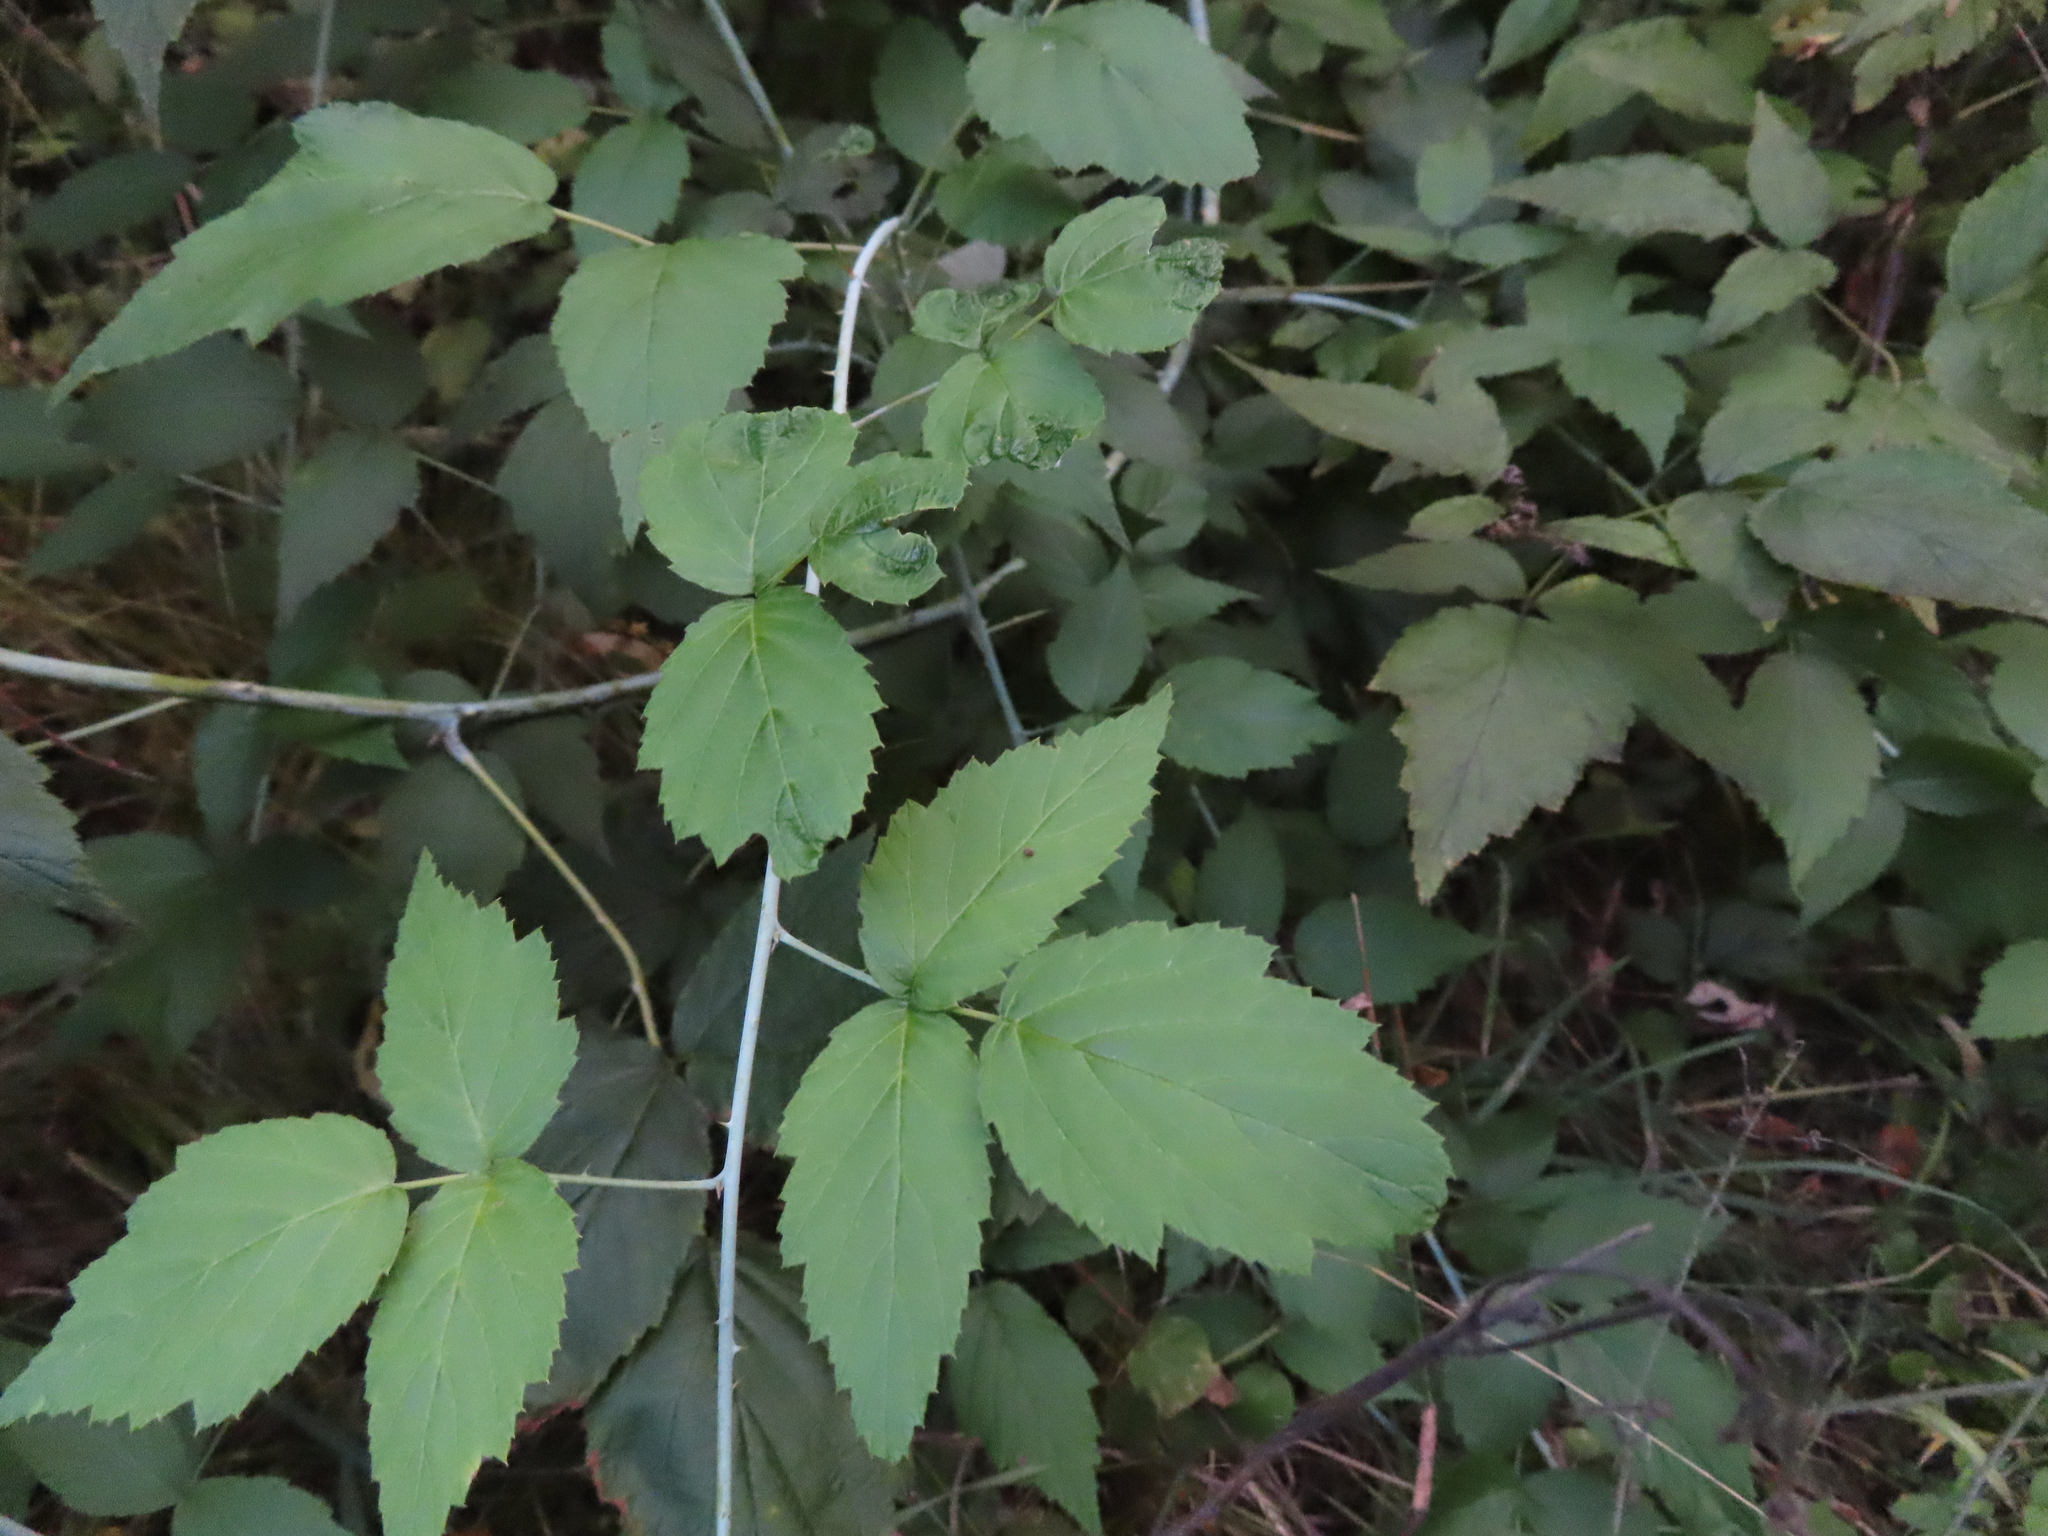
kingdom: Plantae
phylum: Tracheophyta
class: Magnoliopsida
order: Rosales
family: Rosaceae
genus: Rubus
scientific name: Rubus occidentalis
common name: Black raspberry
